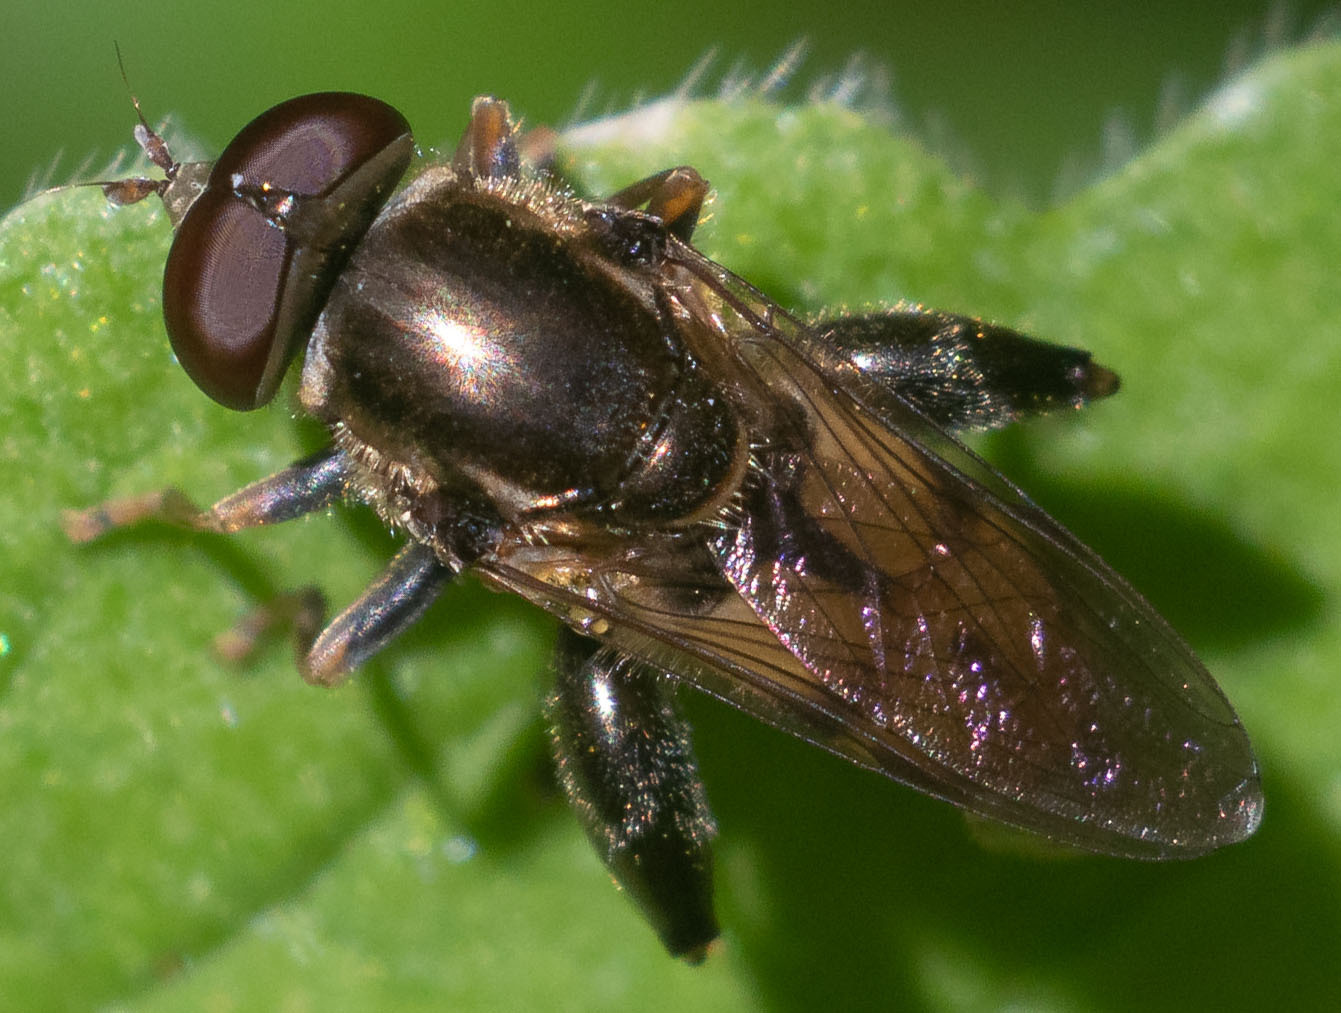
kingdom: Animalia
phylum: Arthropoda
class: Insecta
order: Diptera
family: Syrphidae
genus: Tropidia
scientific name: Tropidia quadrata
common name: Common thick-legged fly
